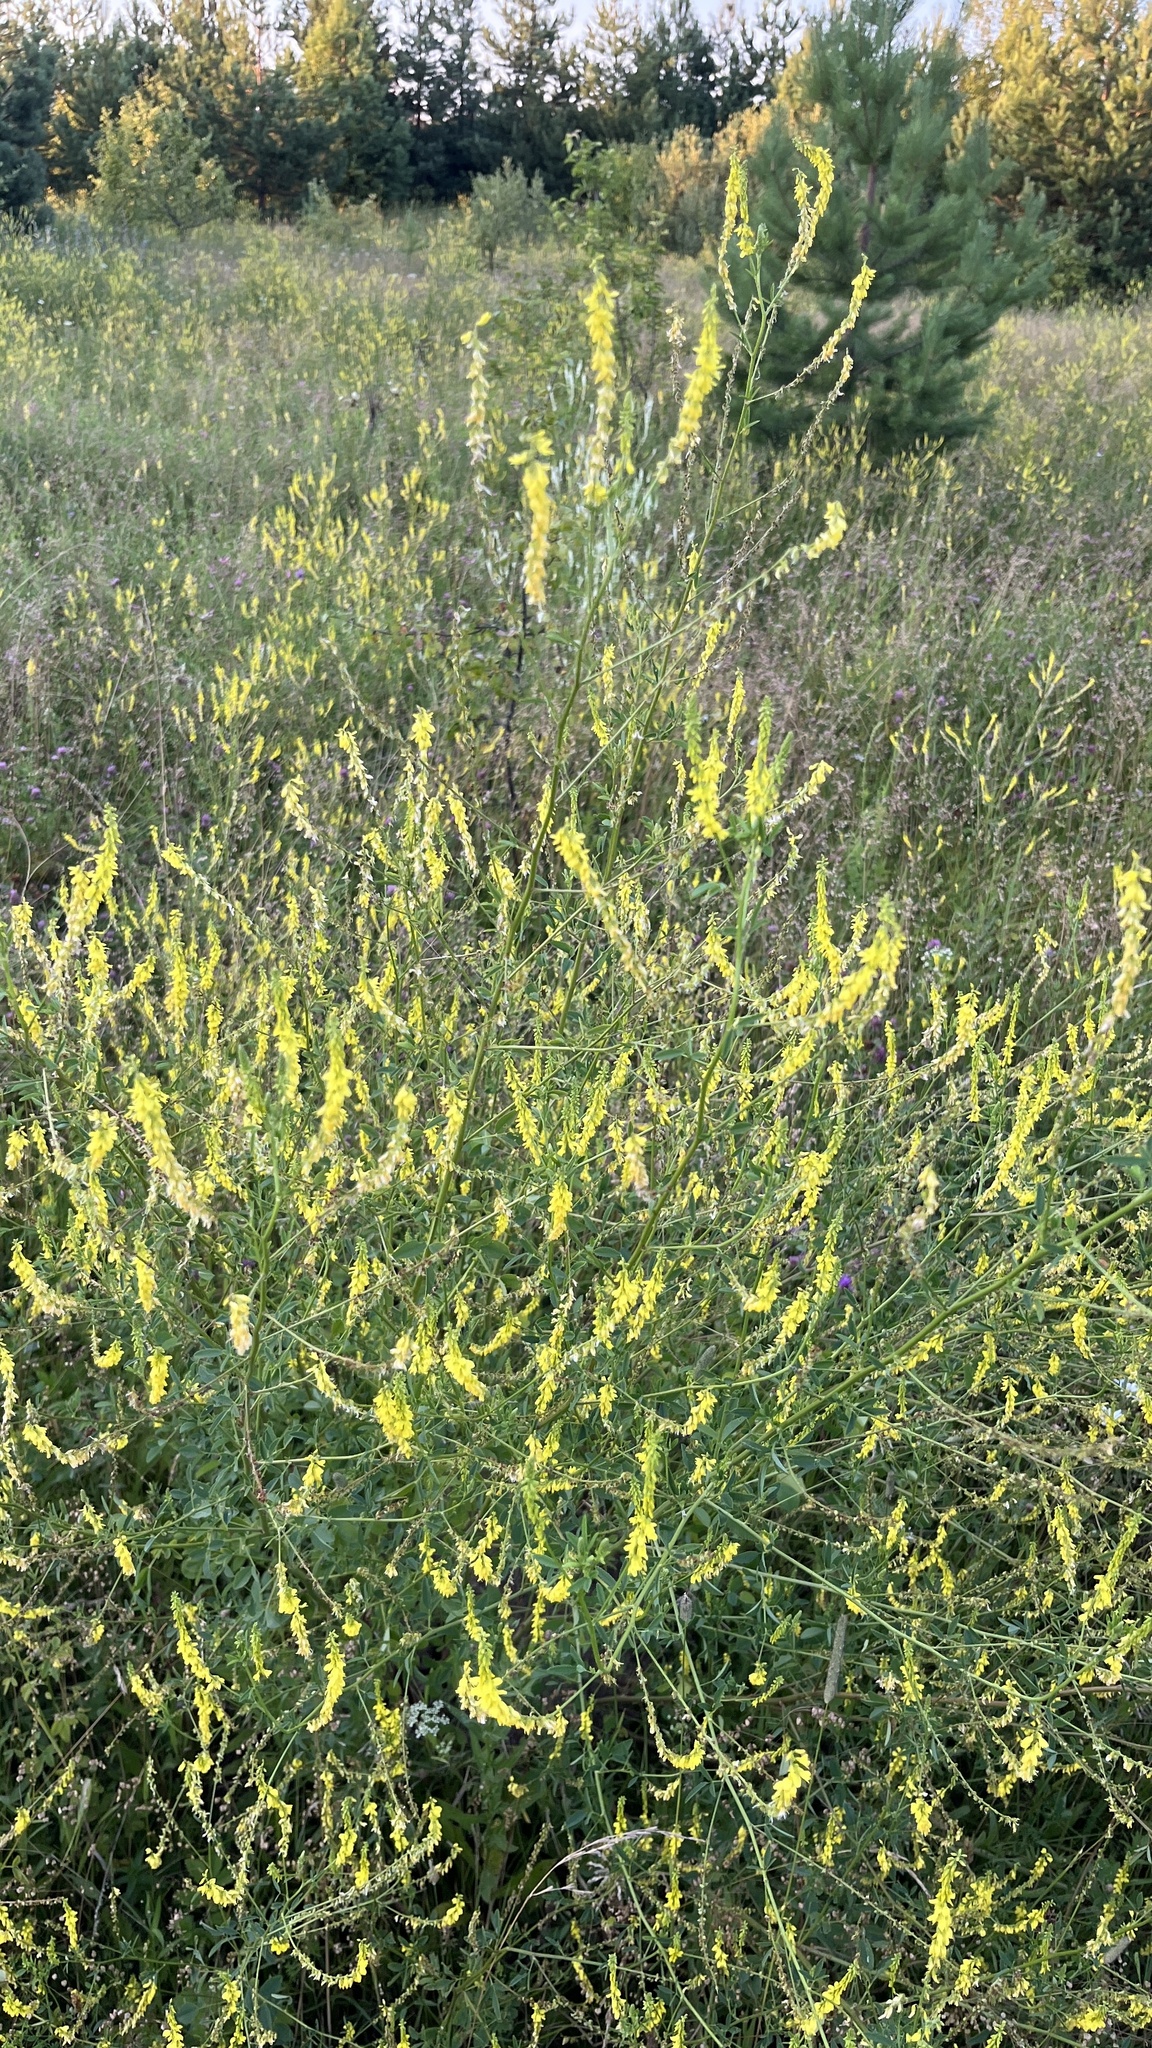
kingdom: Plantae
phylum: Tracheophyta
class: Magnoliopsida
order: Fabales
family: Fabaceae
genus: Melilotus
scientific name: Melilotus officinalis
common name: Sweetclover
